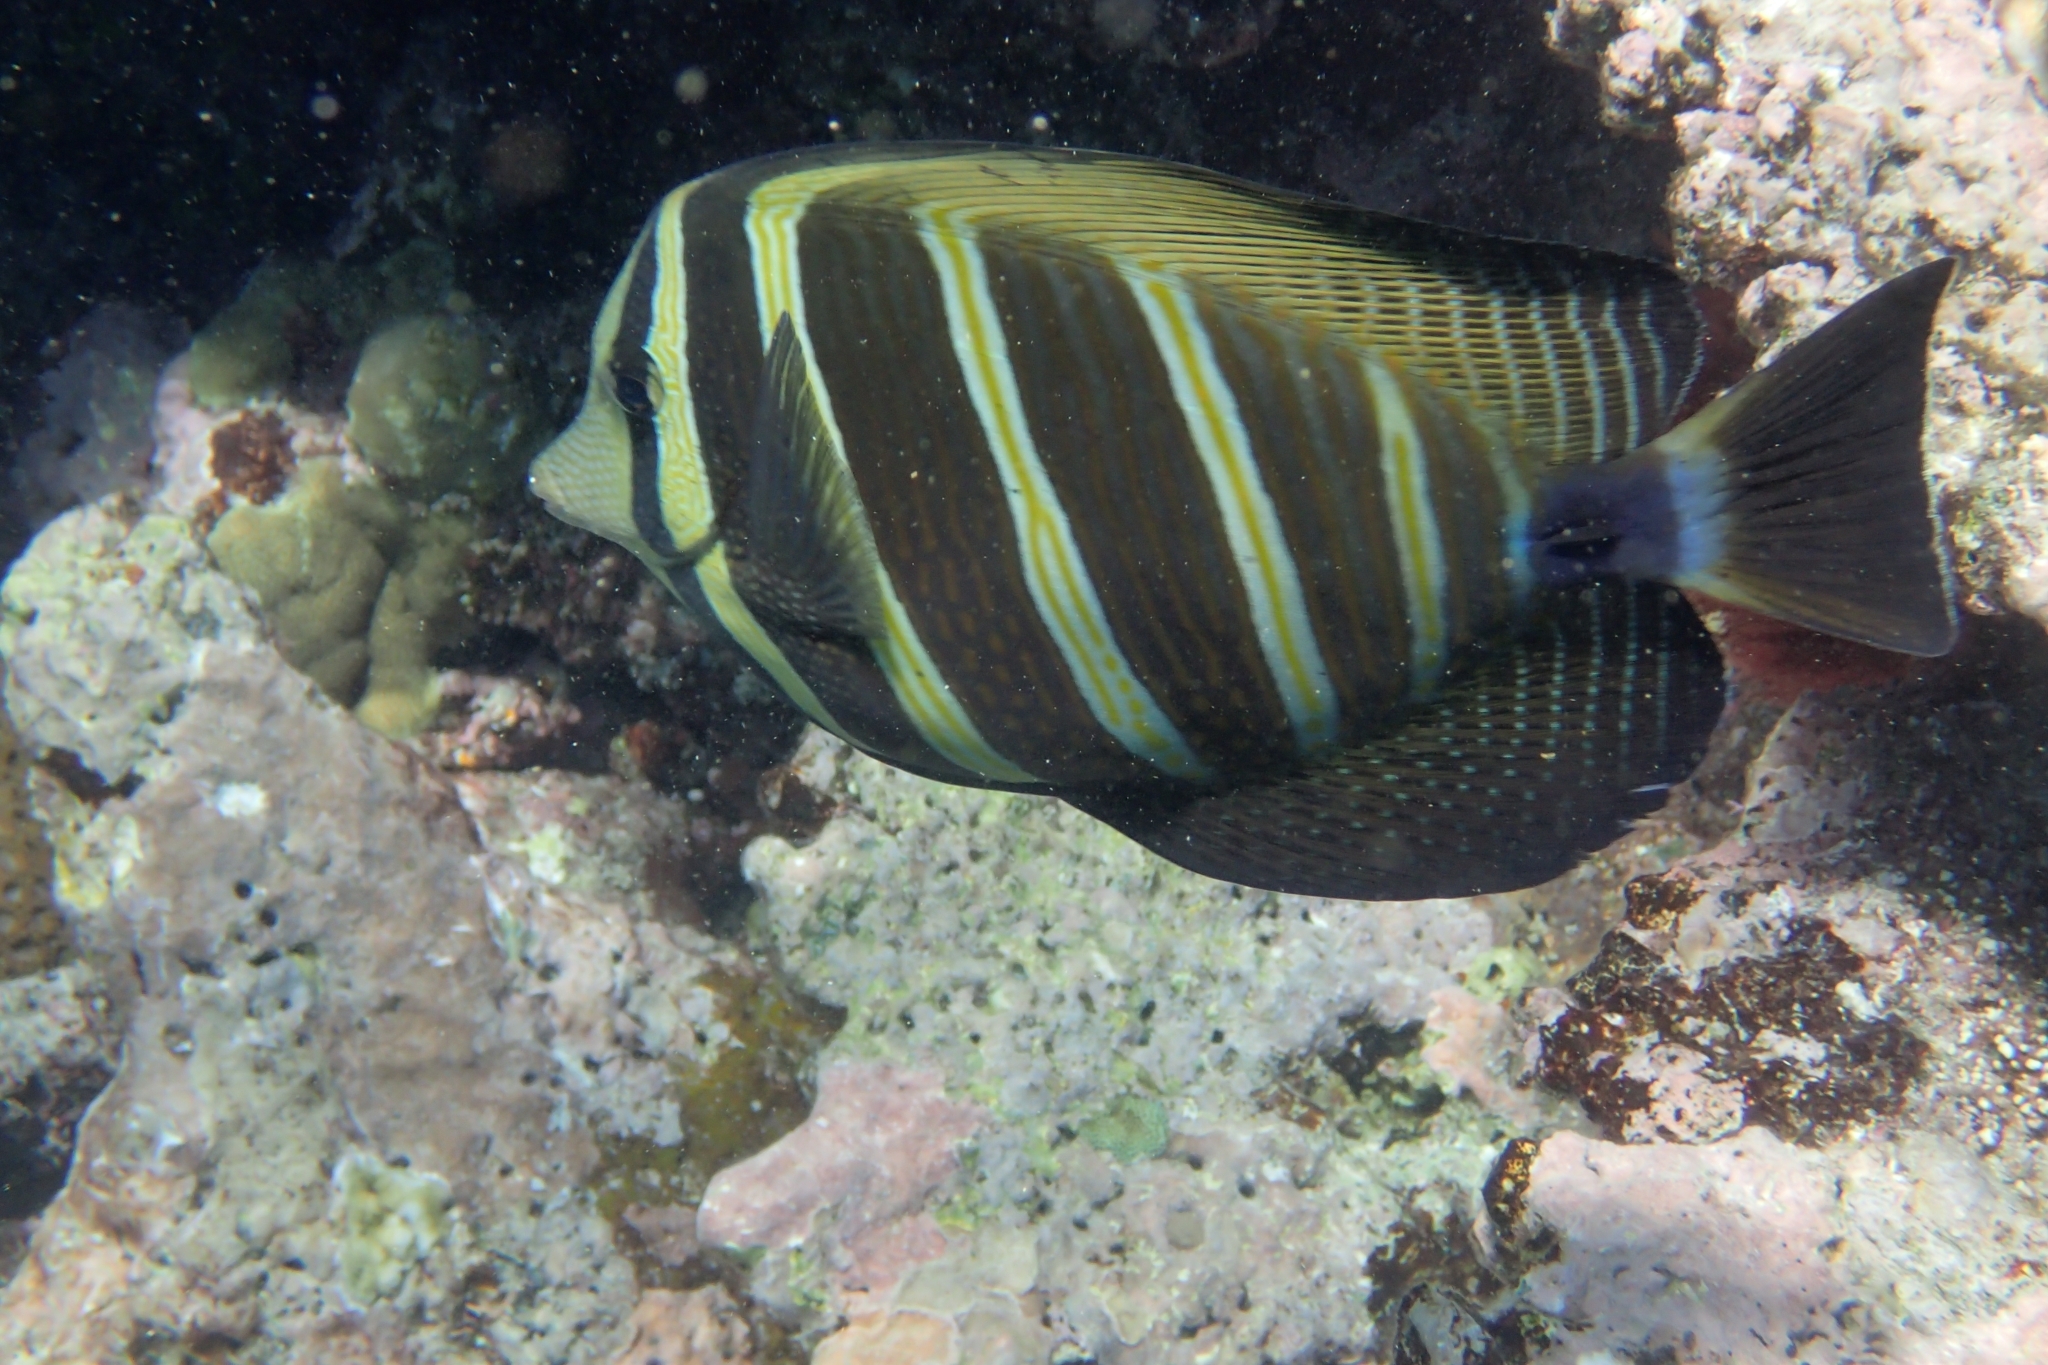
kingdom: Animalia
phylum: Chordata
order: Perciformes
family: Acanthuridae
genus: Zebrasoma
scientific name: Zebrasoma veliferum
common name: Sailfin surgeonfish
